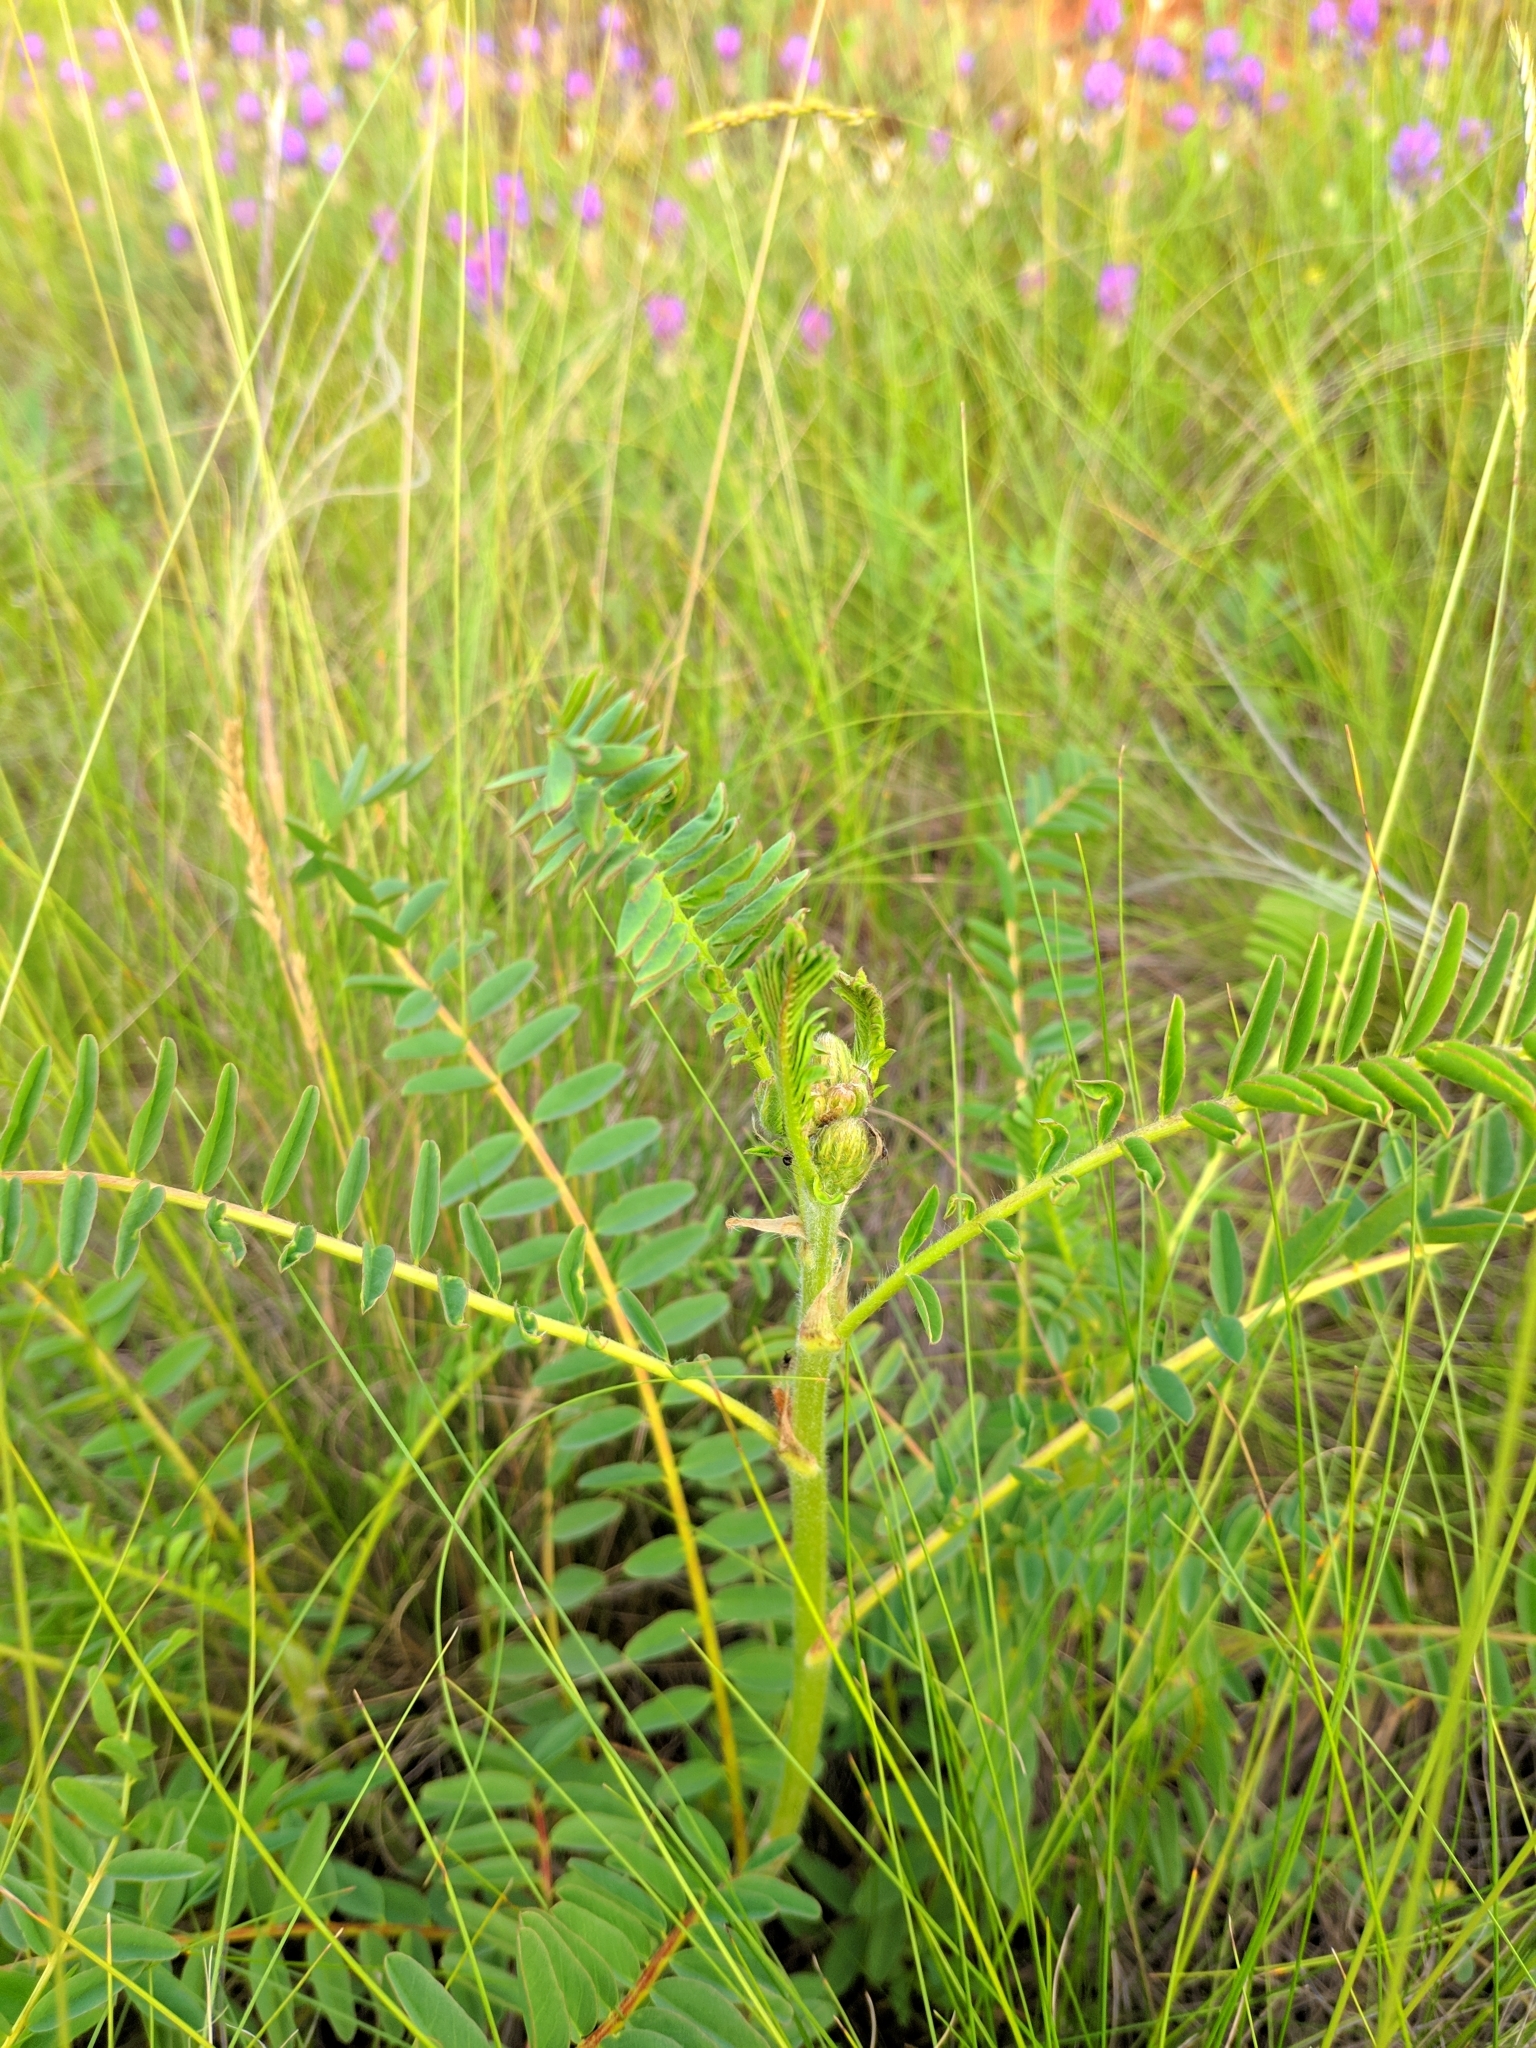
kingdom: Plantae
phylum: Tracheophyta
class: Magnoliopsida
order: Fabales
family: Fabaceae
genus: Astragalus
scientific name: Astragalus ponticus
